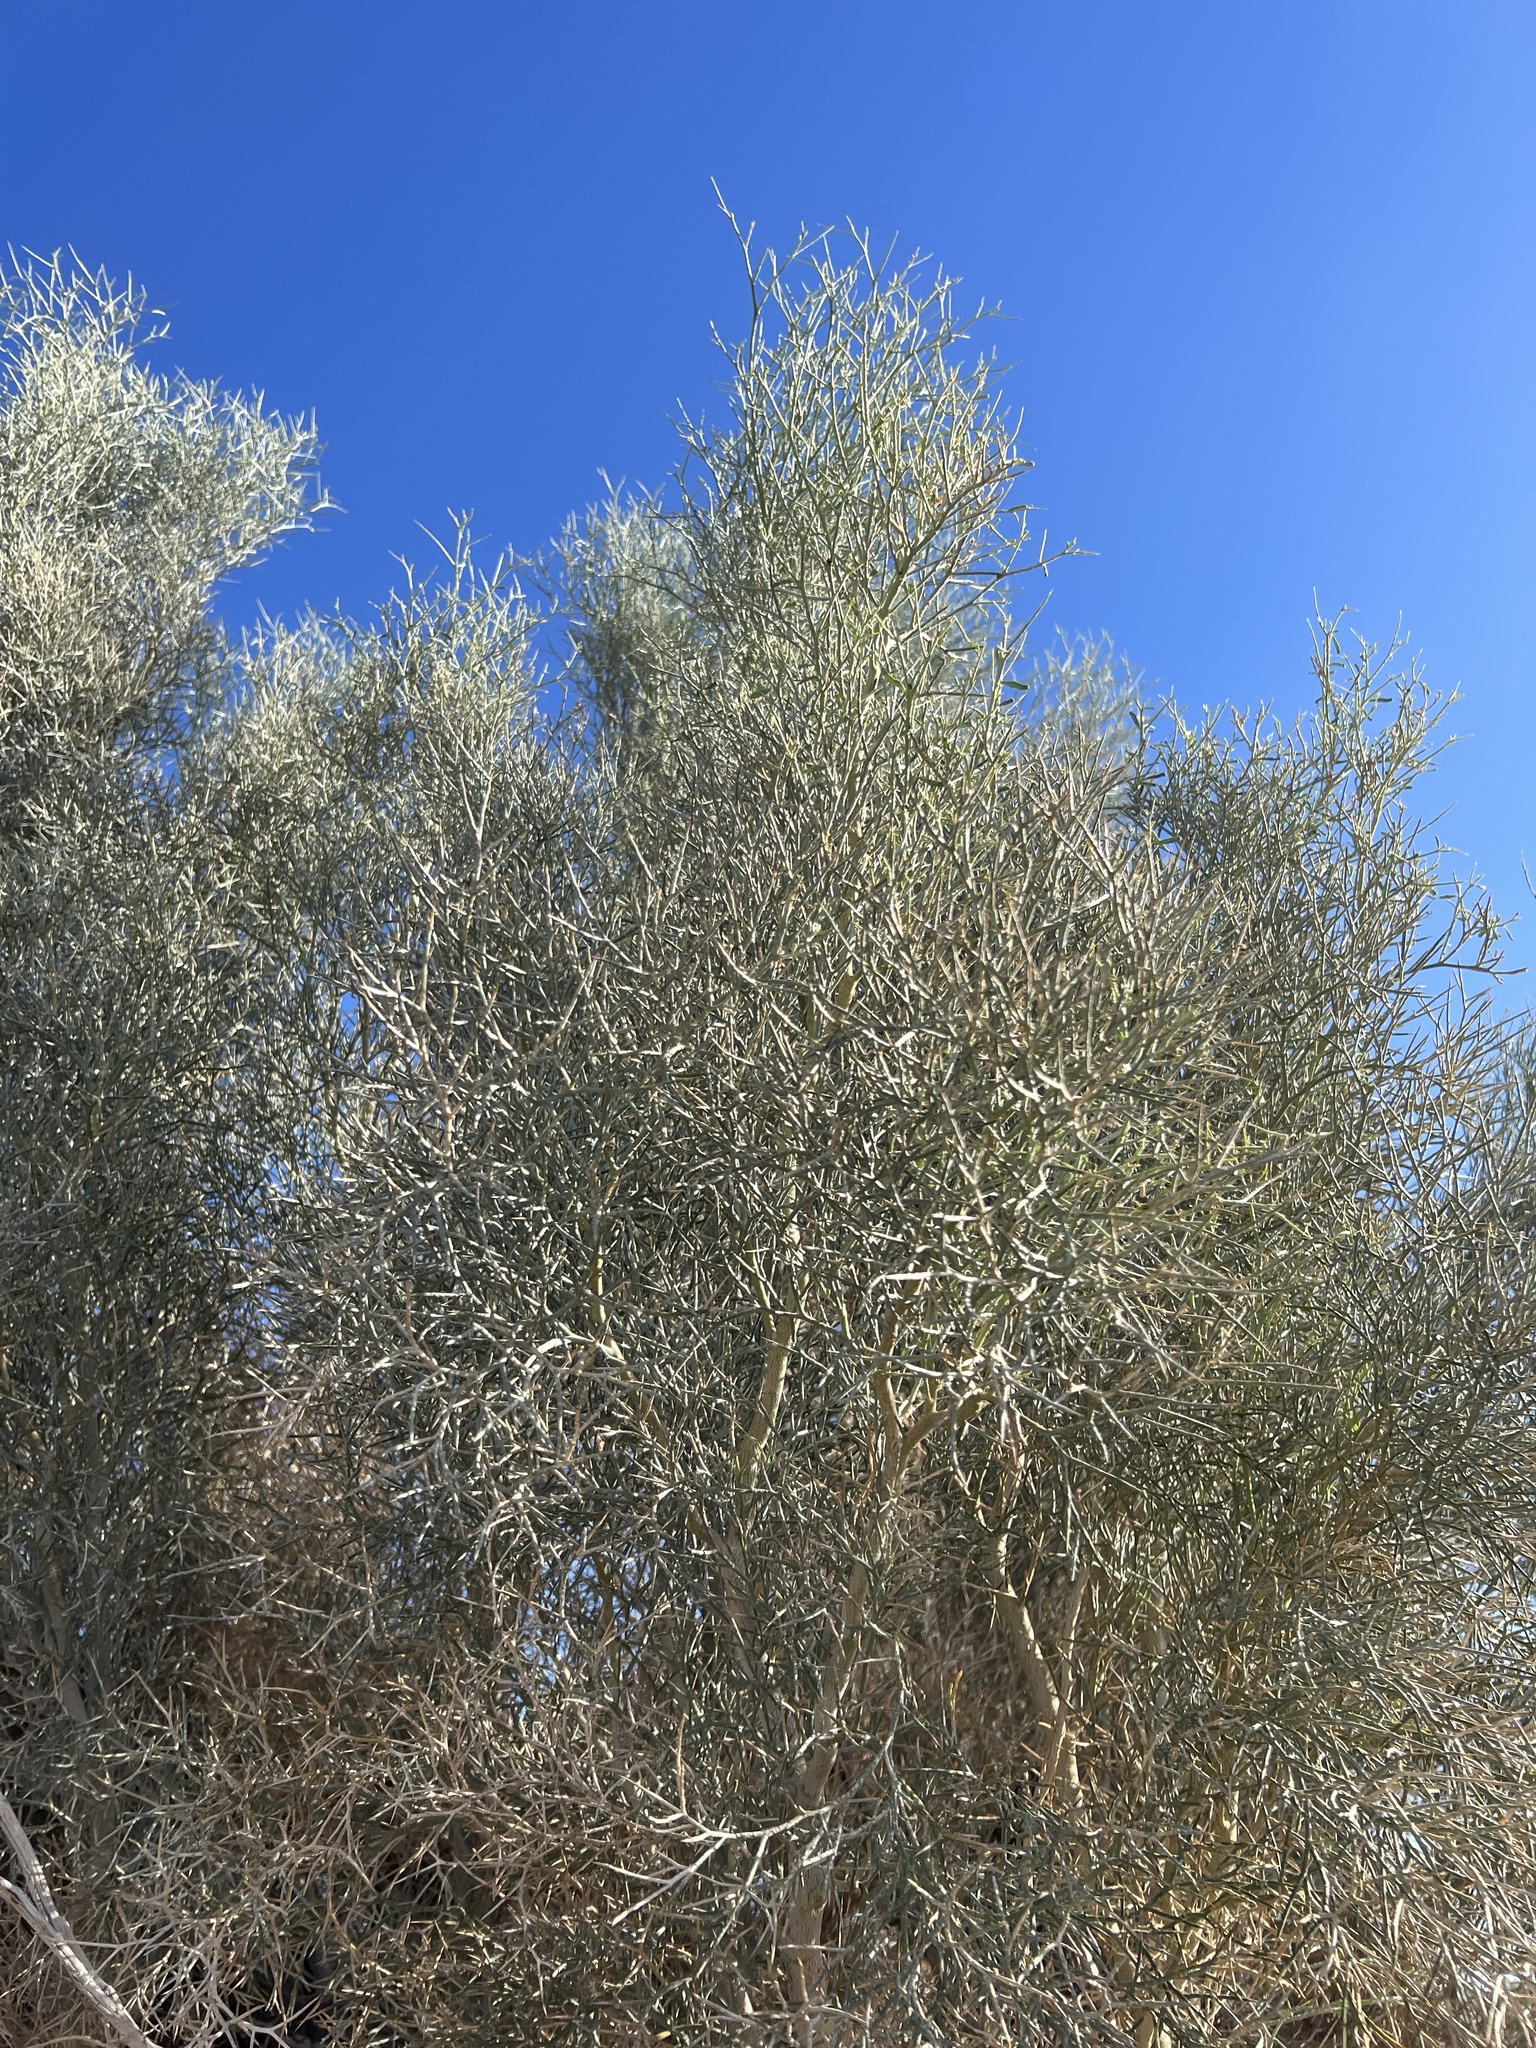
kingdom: Plantae
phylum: Tracheophyta
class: Magnoliopsida
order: Fabales
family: Fabaceae
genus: Psorothamnus
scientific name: Psorothamnus spinosus
